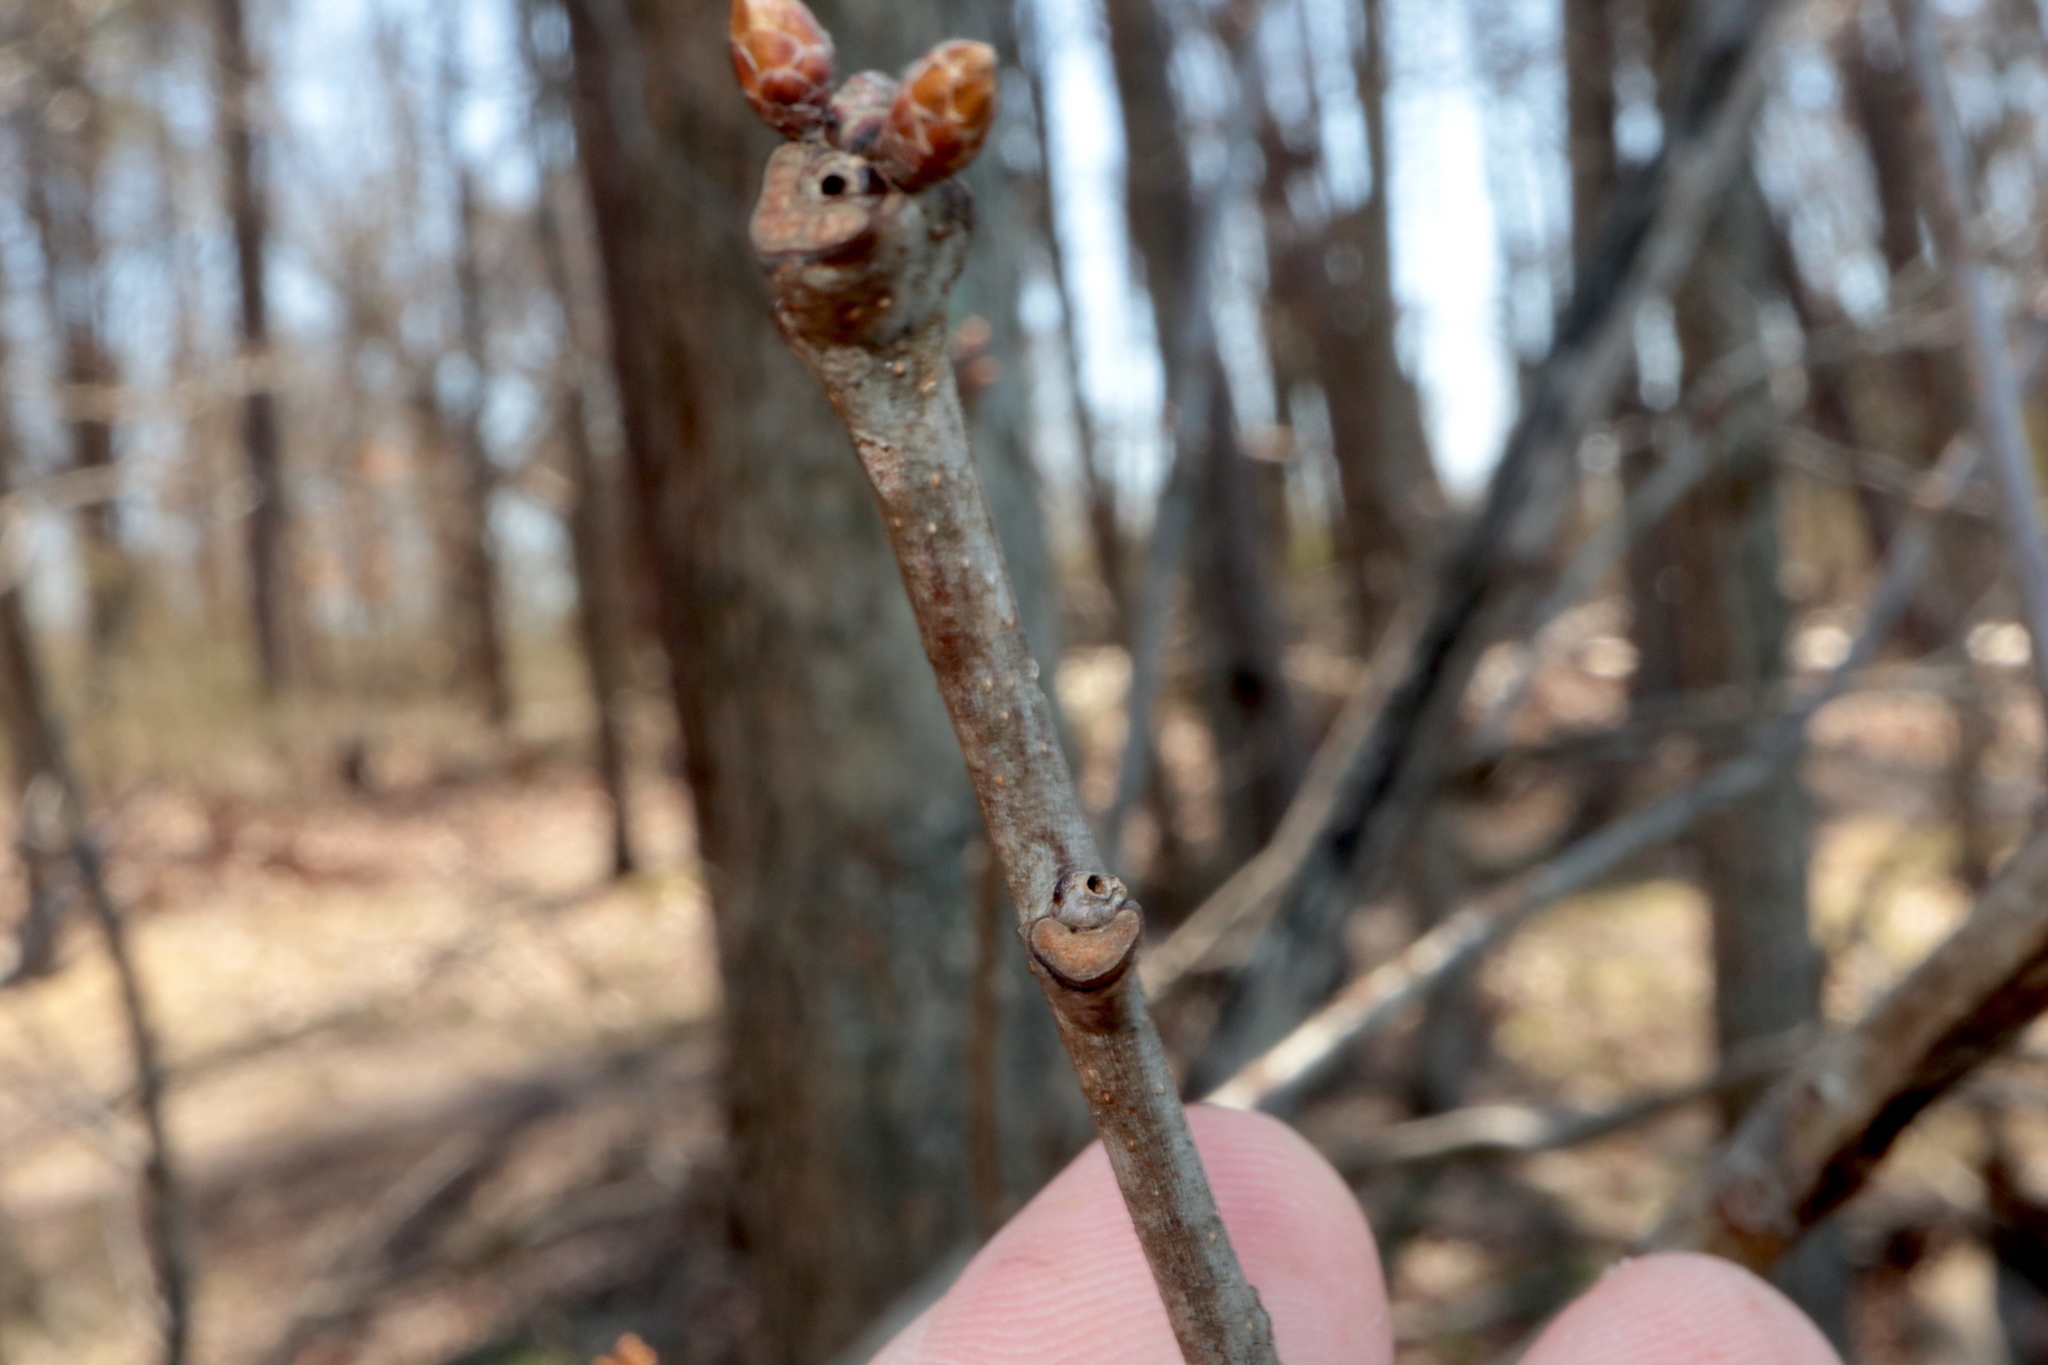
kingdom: Animalia
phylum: Arthropoda
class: Insecta
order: Hymenoptera
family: Cynipidae
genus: Neuroterus
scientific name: Neuroterus
